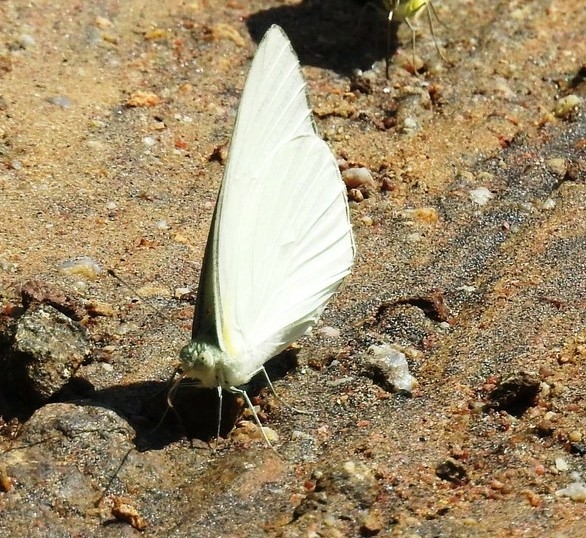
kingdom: Animalia
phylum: Arthropoda
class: Insecta
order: Lepidoptera
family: Pieridae
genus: Appias
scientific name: Appias albina
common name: Common albatross
